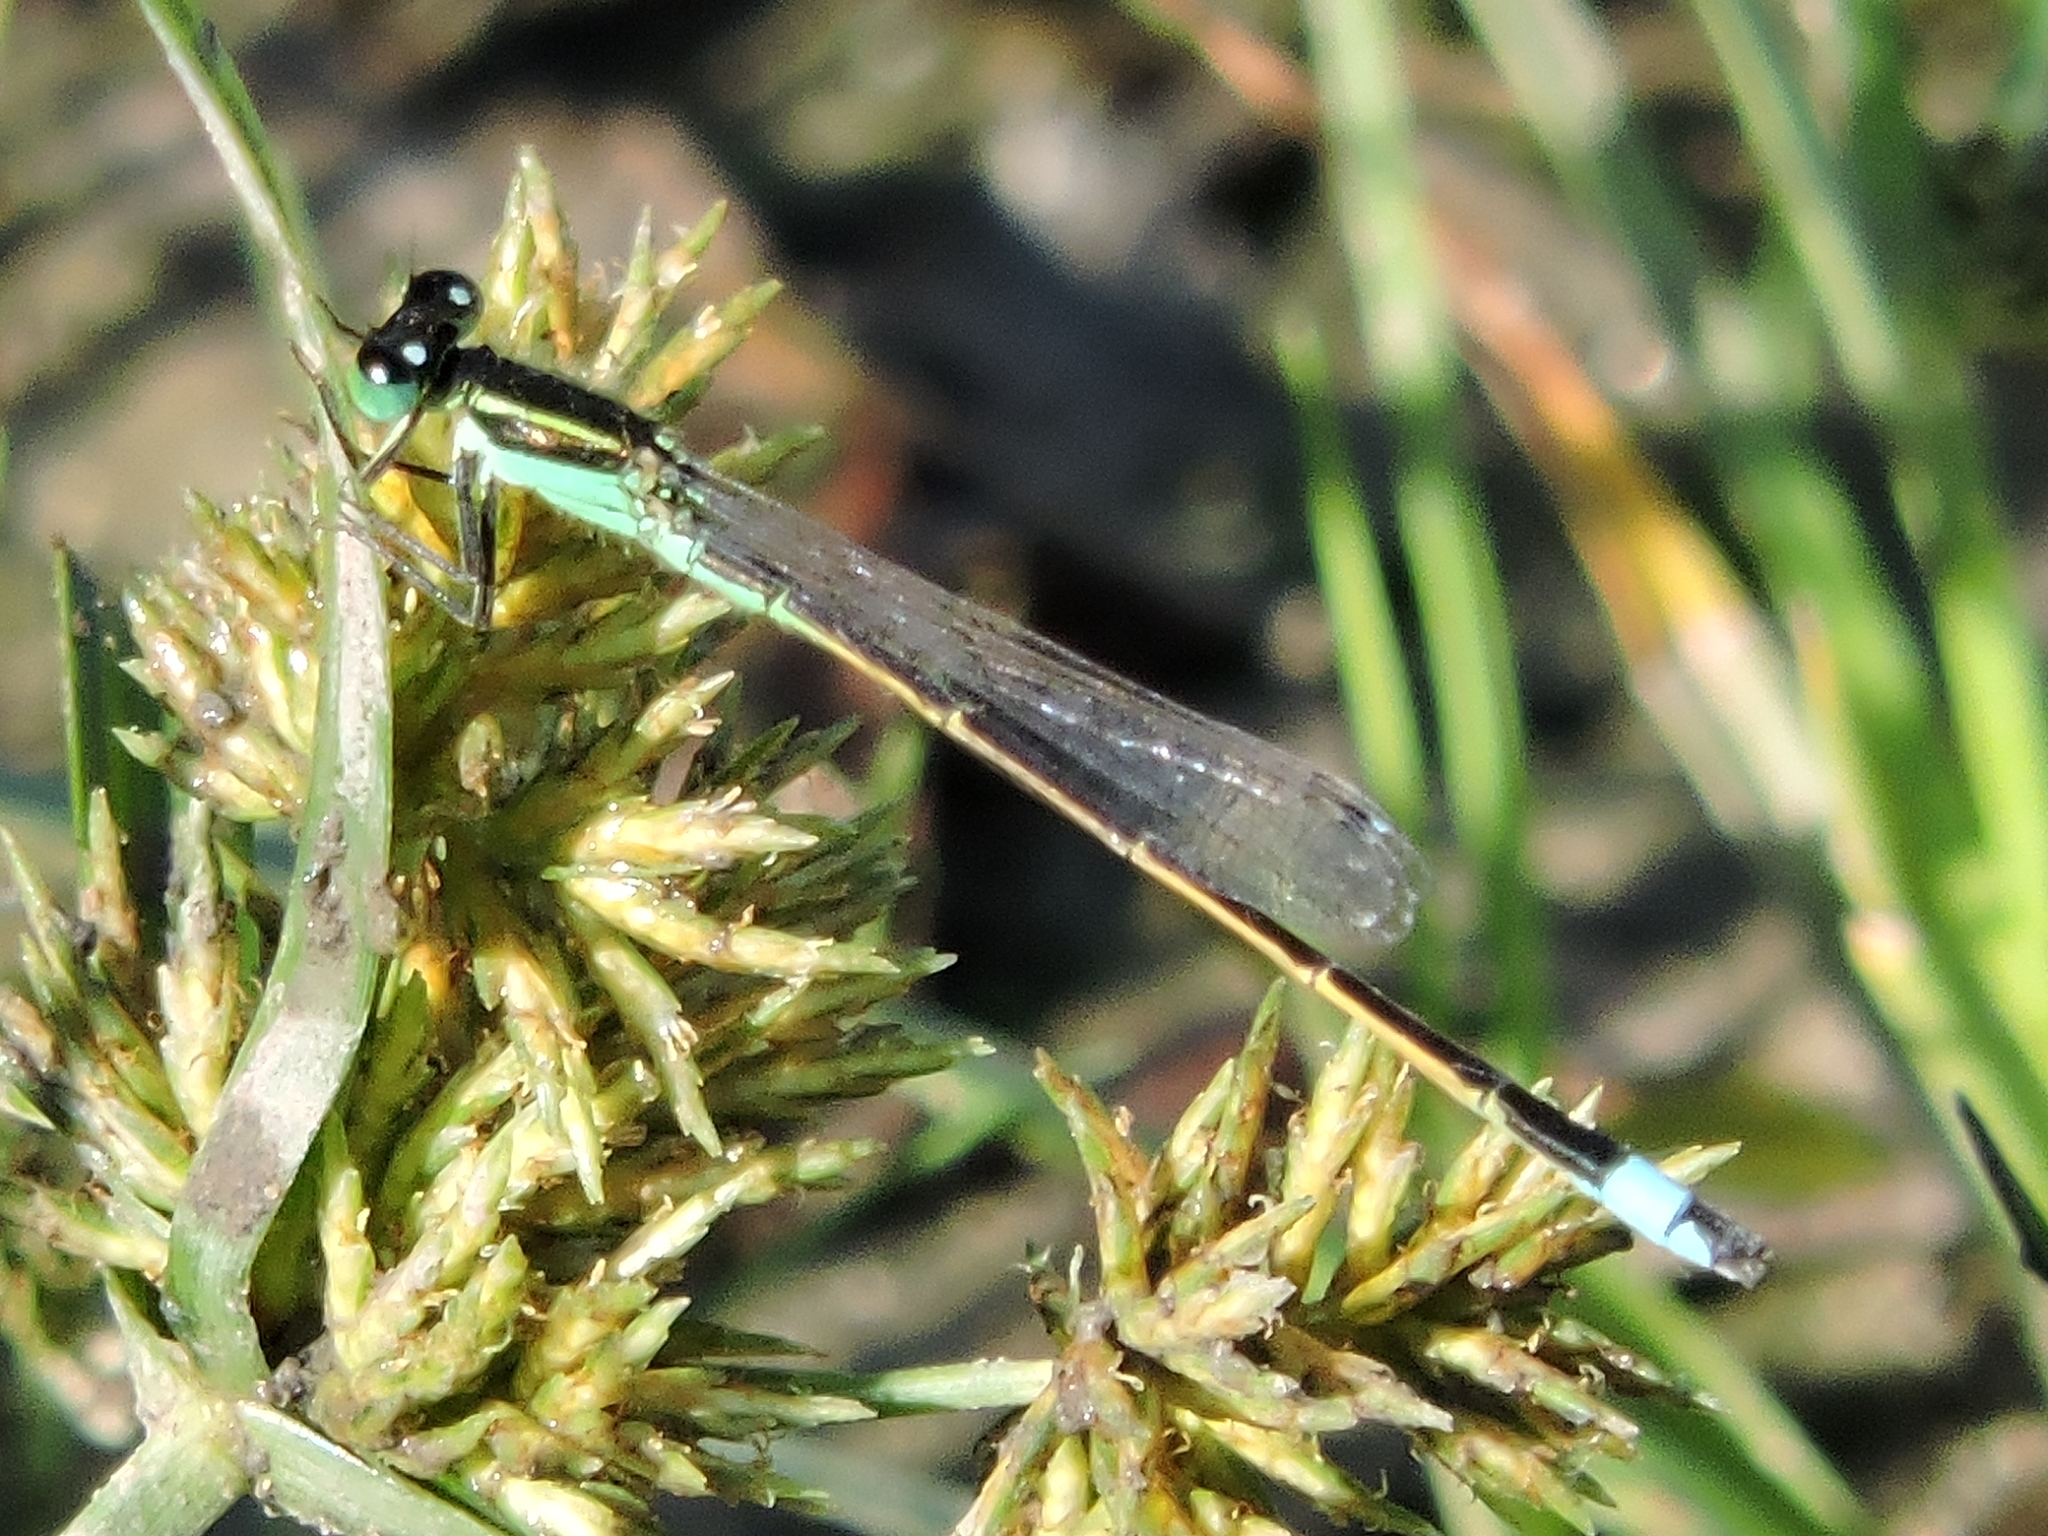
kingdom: Animalia
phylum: Arthropoda
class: Insecta
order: Odonata
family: Coenagrionidae
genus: Ischnura
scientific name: Ischnura ramburii
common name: Rambur's forktail
